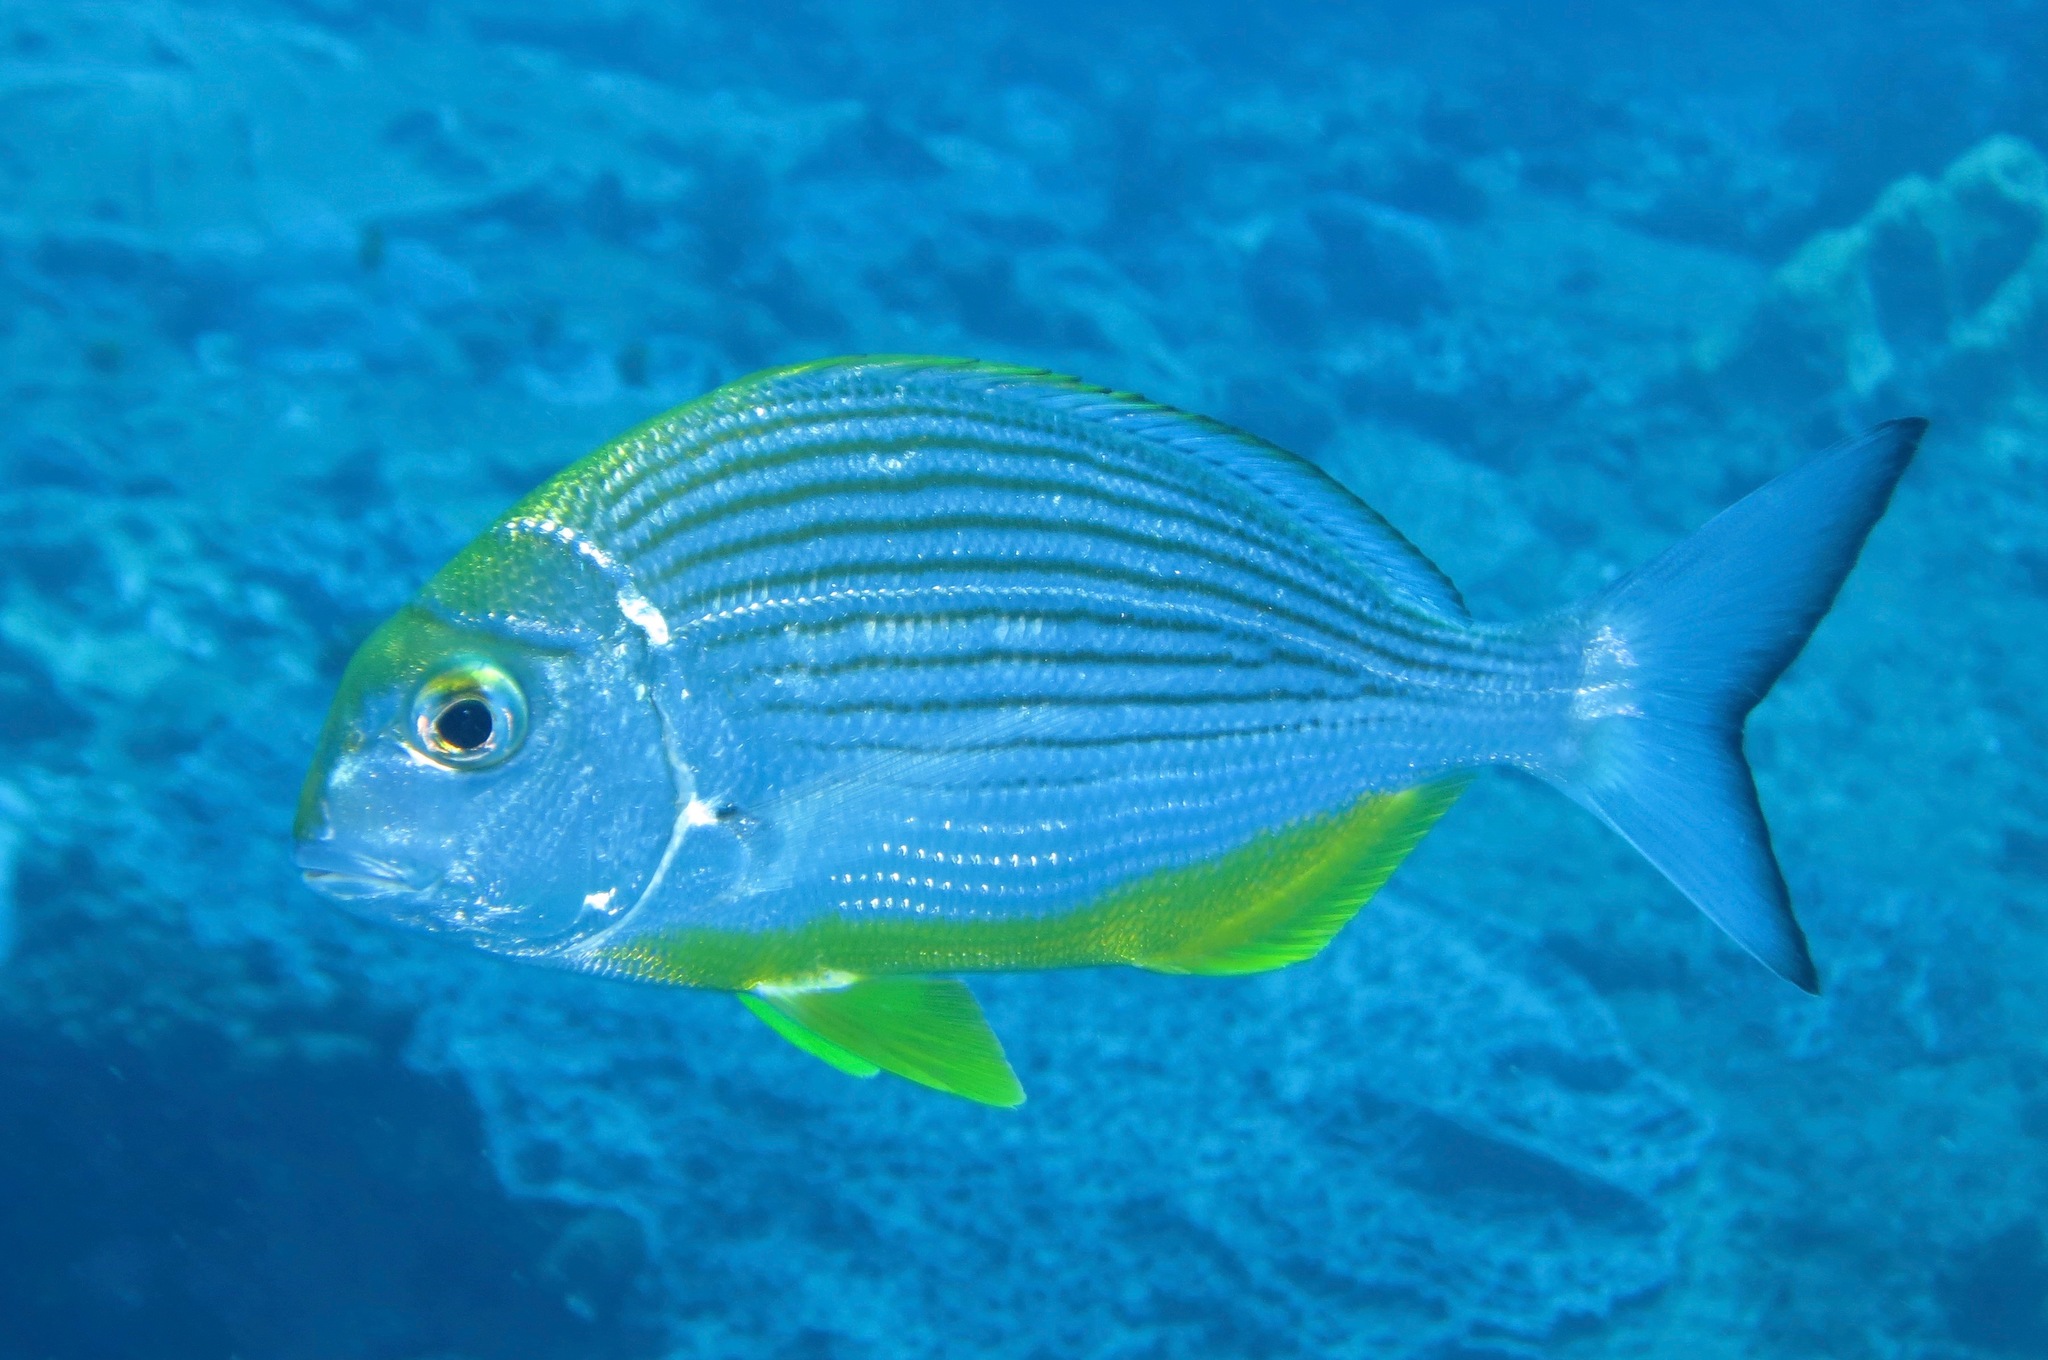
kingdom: Animalia
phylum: Chordata
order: Perciformes
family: Sparidae
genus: Rhabdosargus
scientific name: Rhabdosargus thorpei
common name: Bigeye stumpnose
